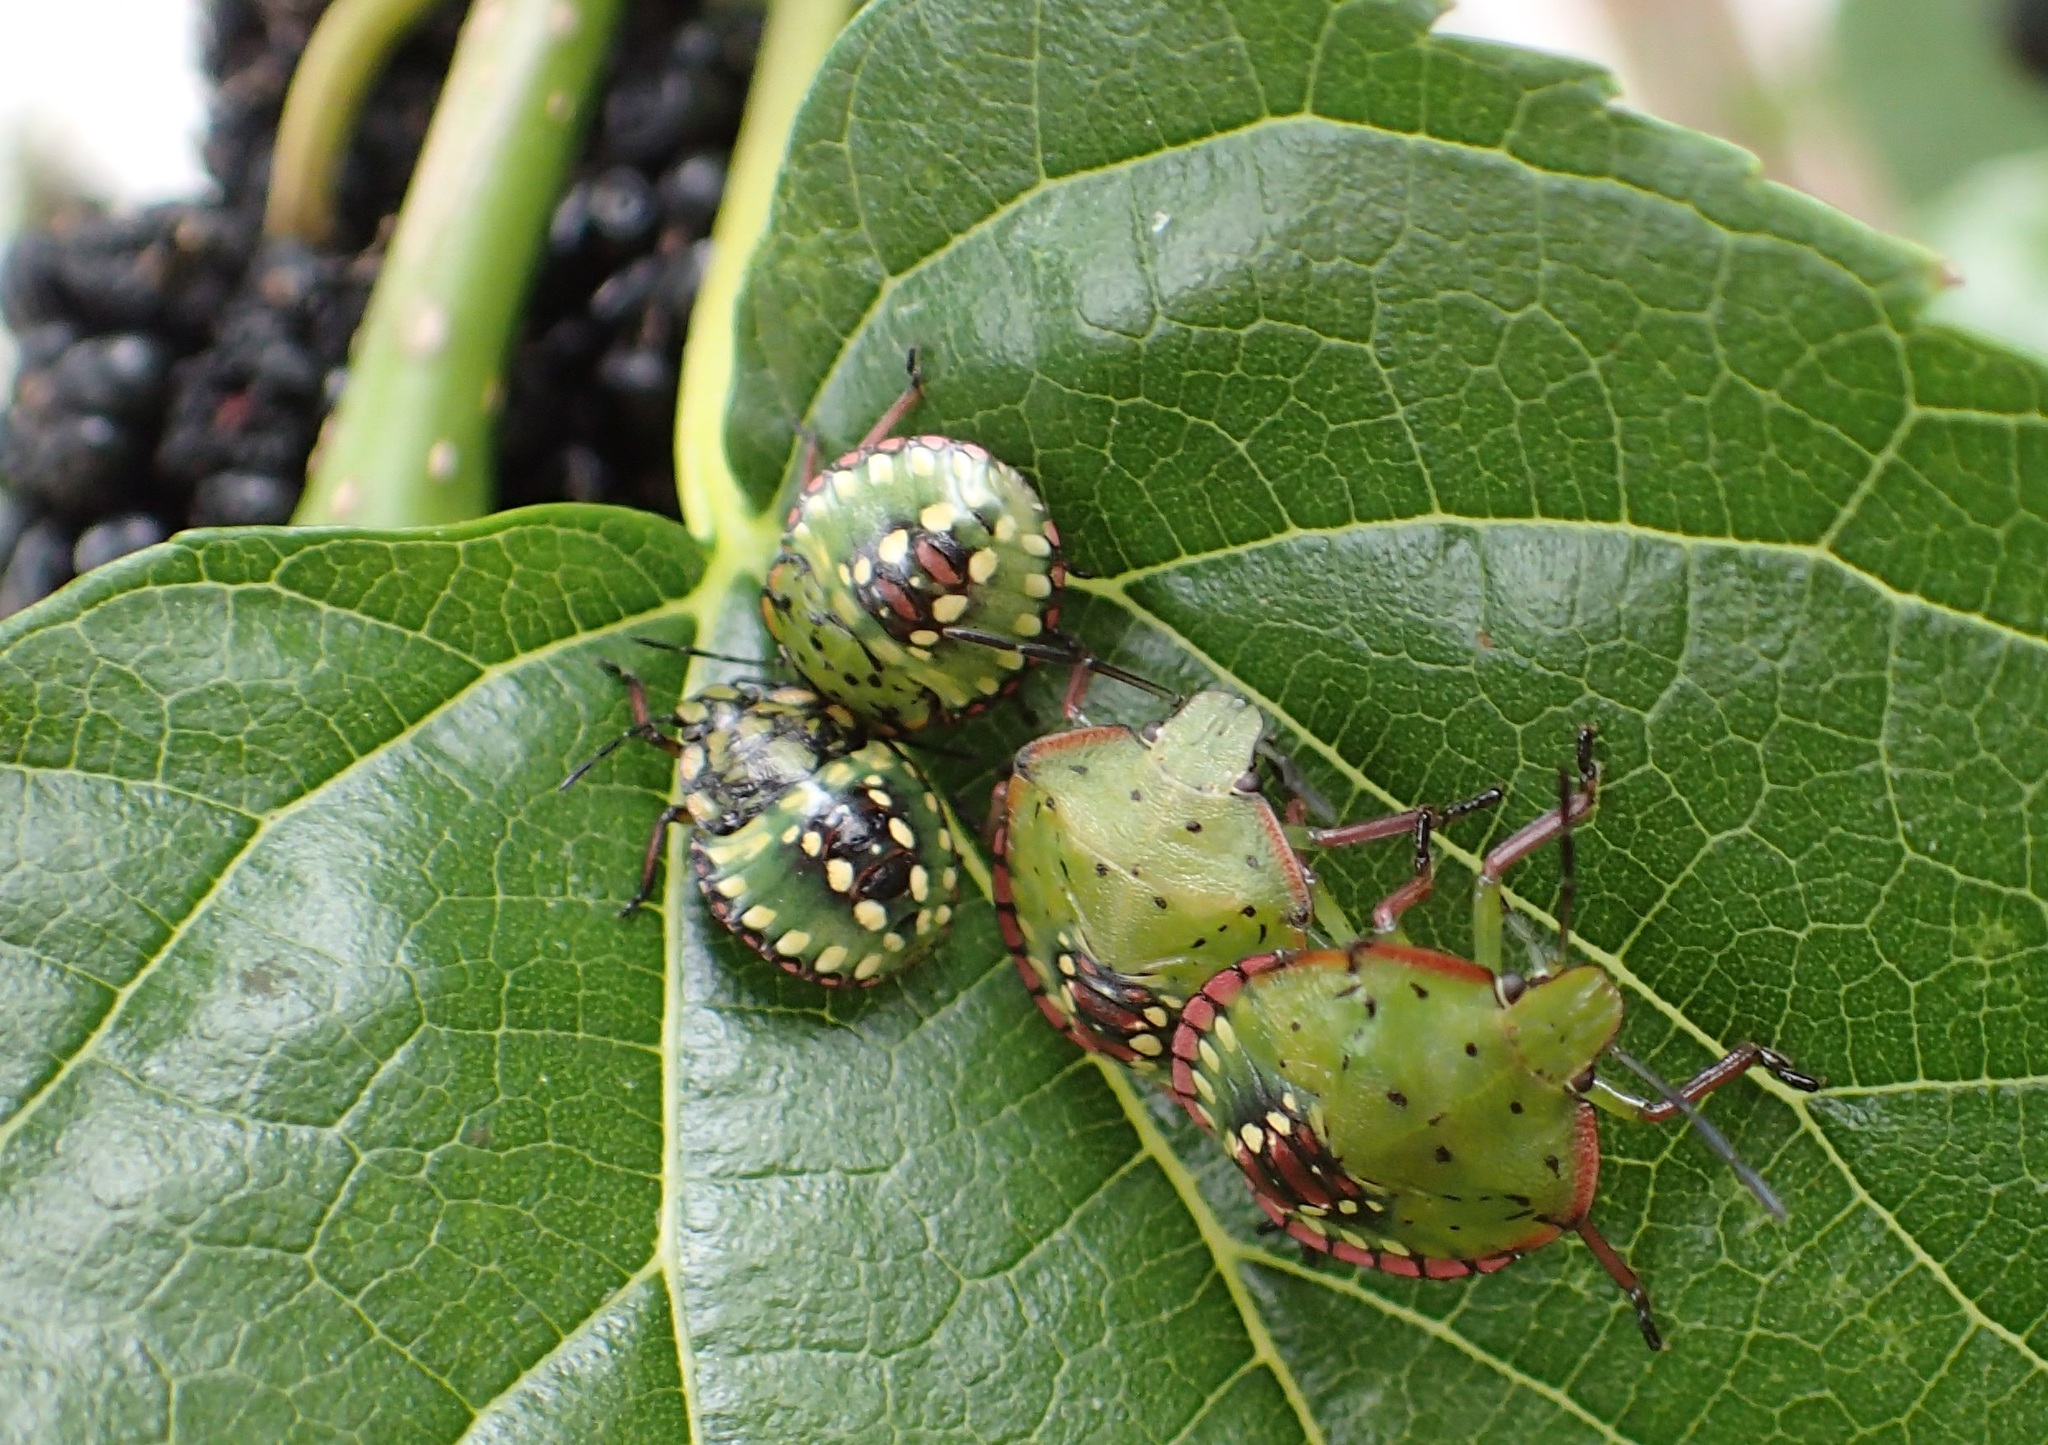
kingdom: Animalia
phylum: Arthropoda
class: Insecta
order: Hemiptera
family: Pentatomidae
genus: Nezara
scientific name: Nezara viridula
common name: Southern green stink bug
